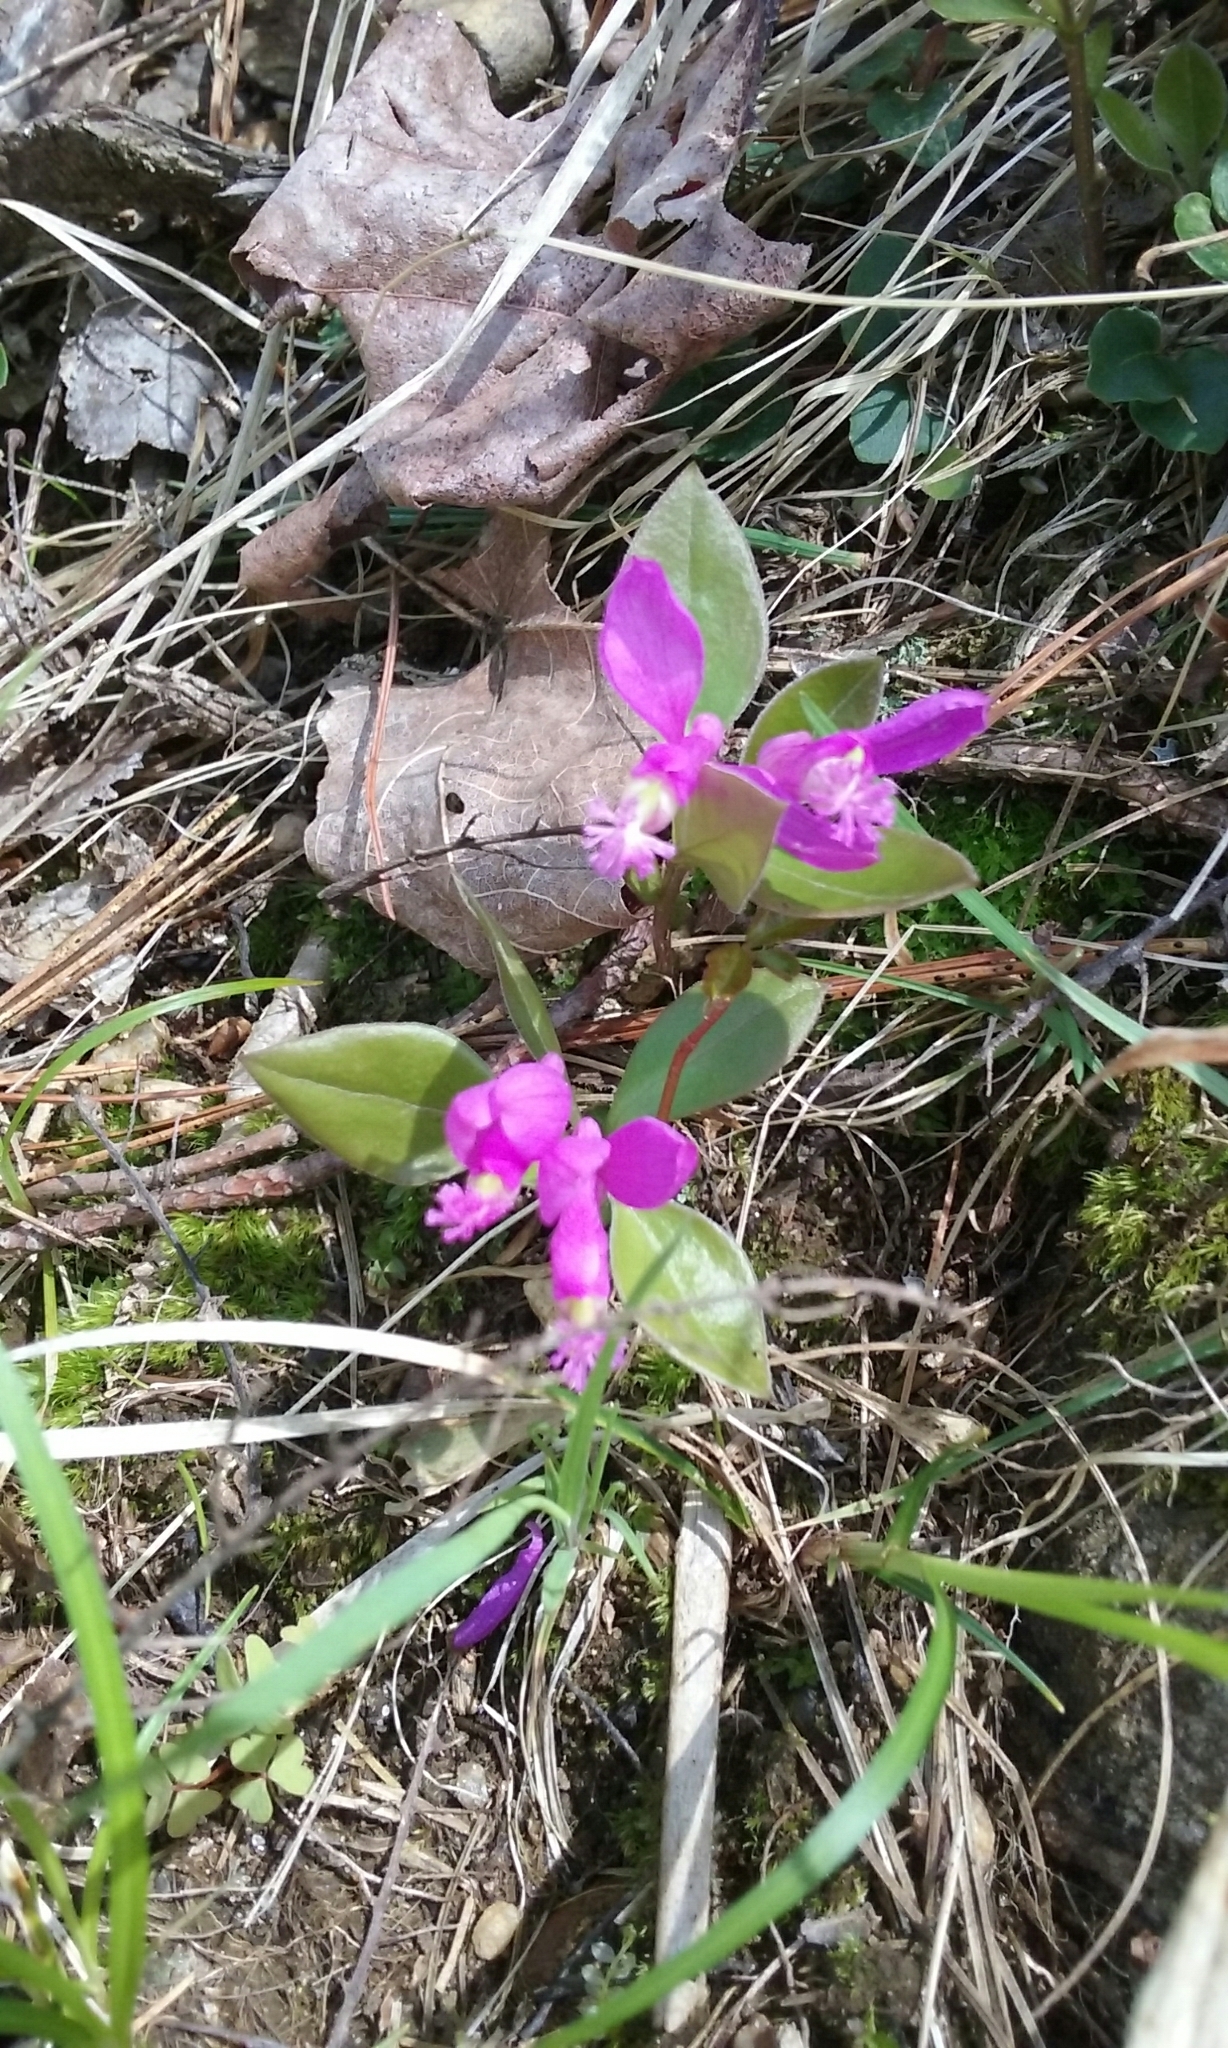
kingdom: Plantae
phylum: Tracheophyta
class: Magnoliopsida
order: Fabales
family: Polygalaceae
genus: Polygaloides
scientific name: Polygaloides paucifolia
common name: Bird-on-the-wing
